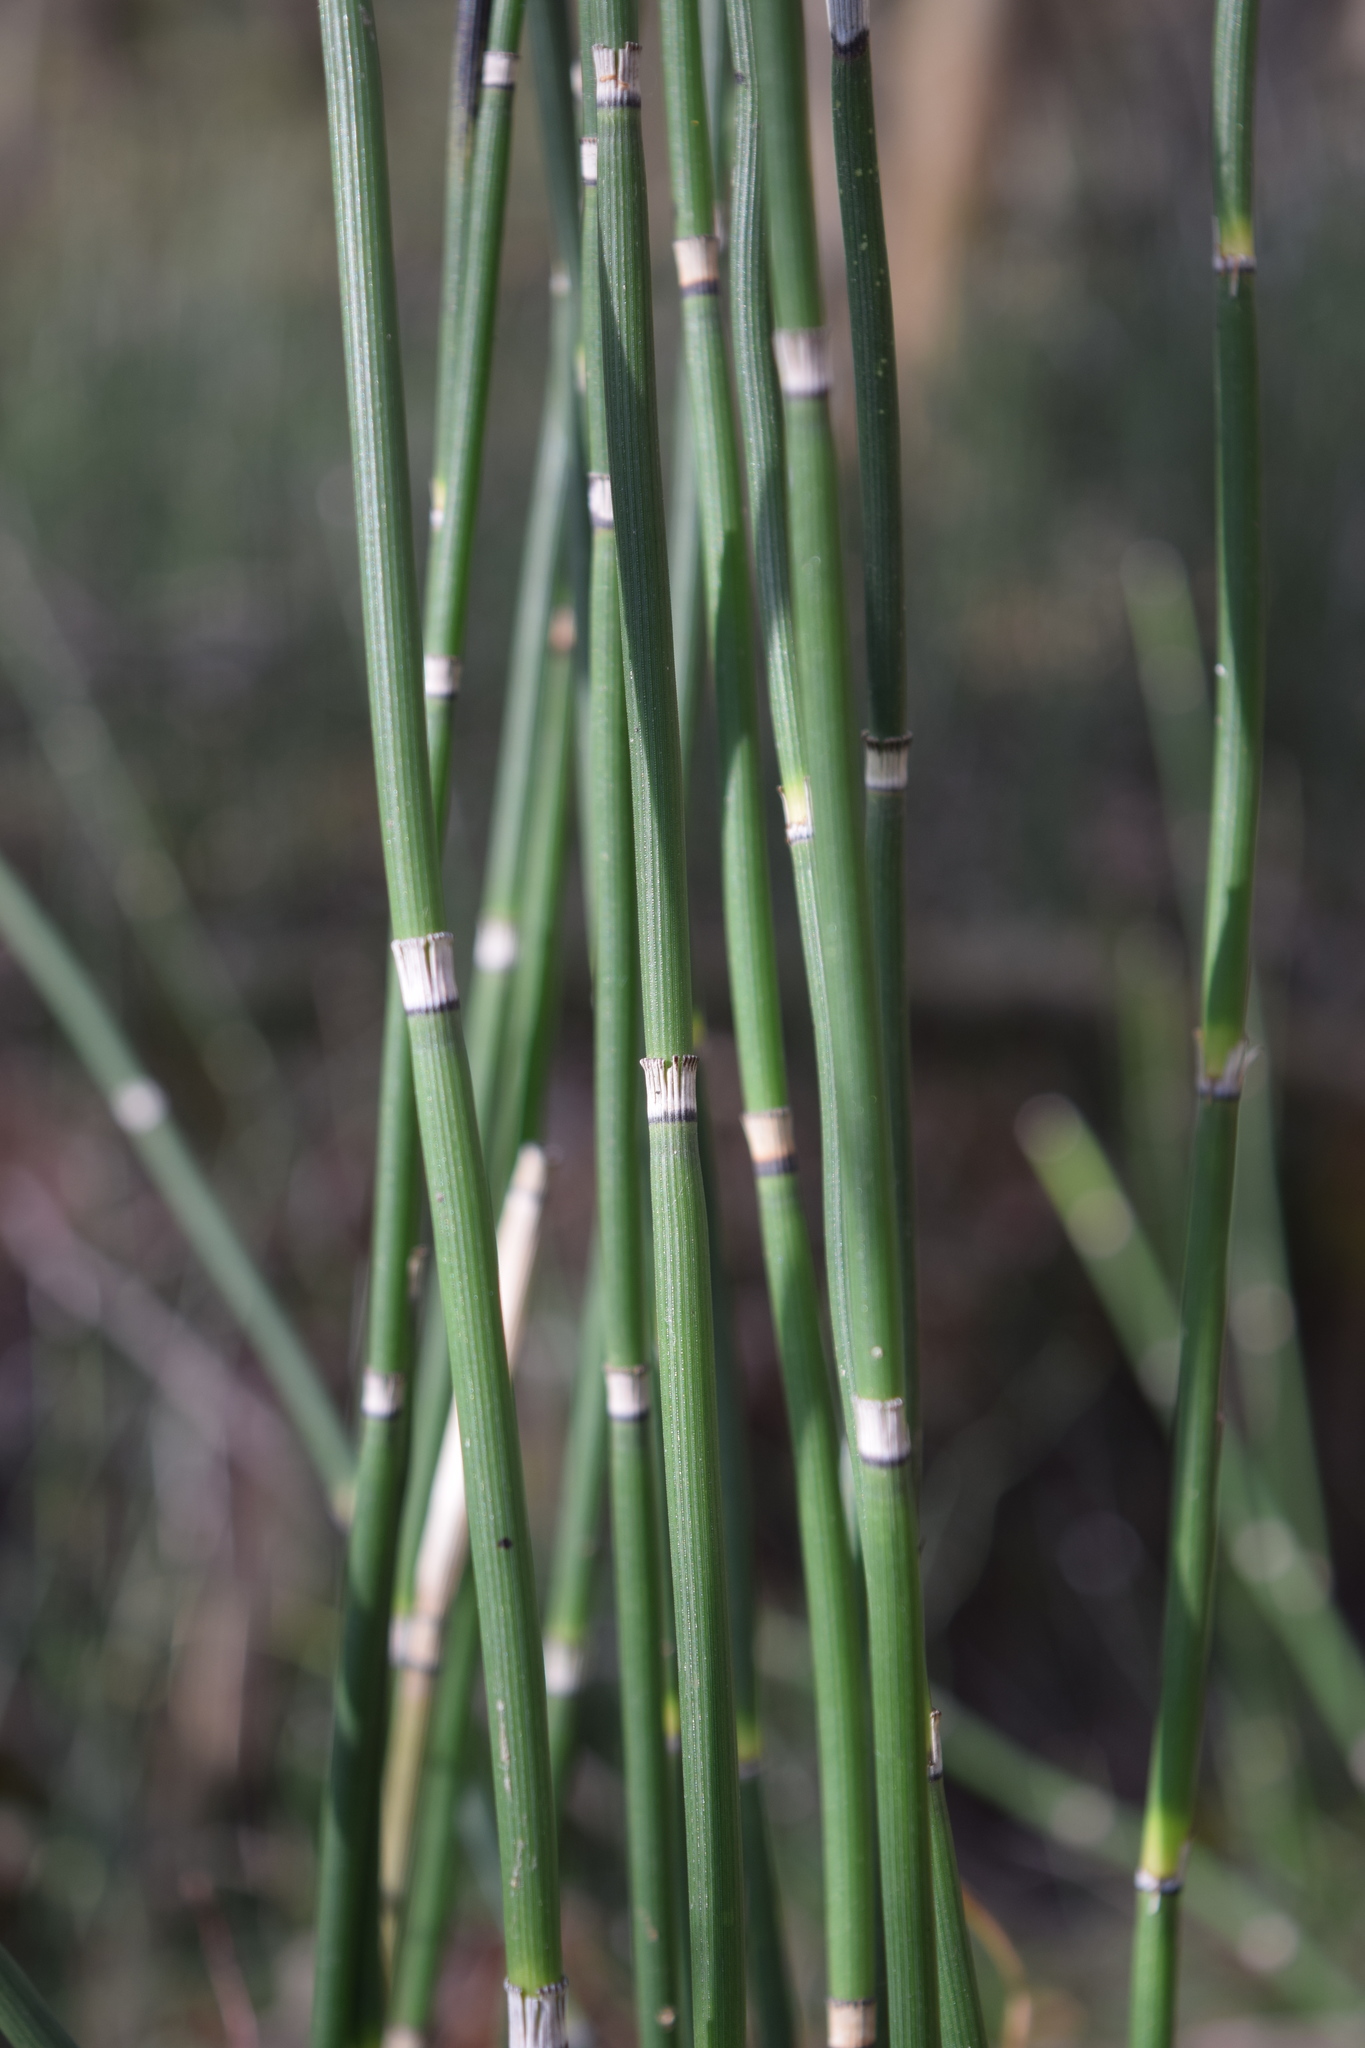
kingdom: Plantae
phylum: Tracheophyta
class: Polypodiopsida
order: Equisetales
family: Equisetaceae
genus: Equisetum
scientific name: Equisetum hyemale
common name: Rough horsetail
